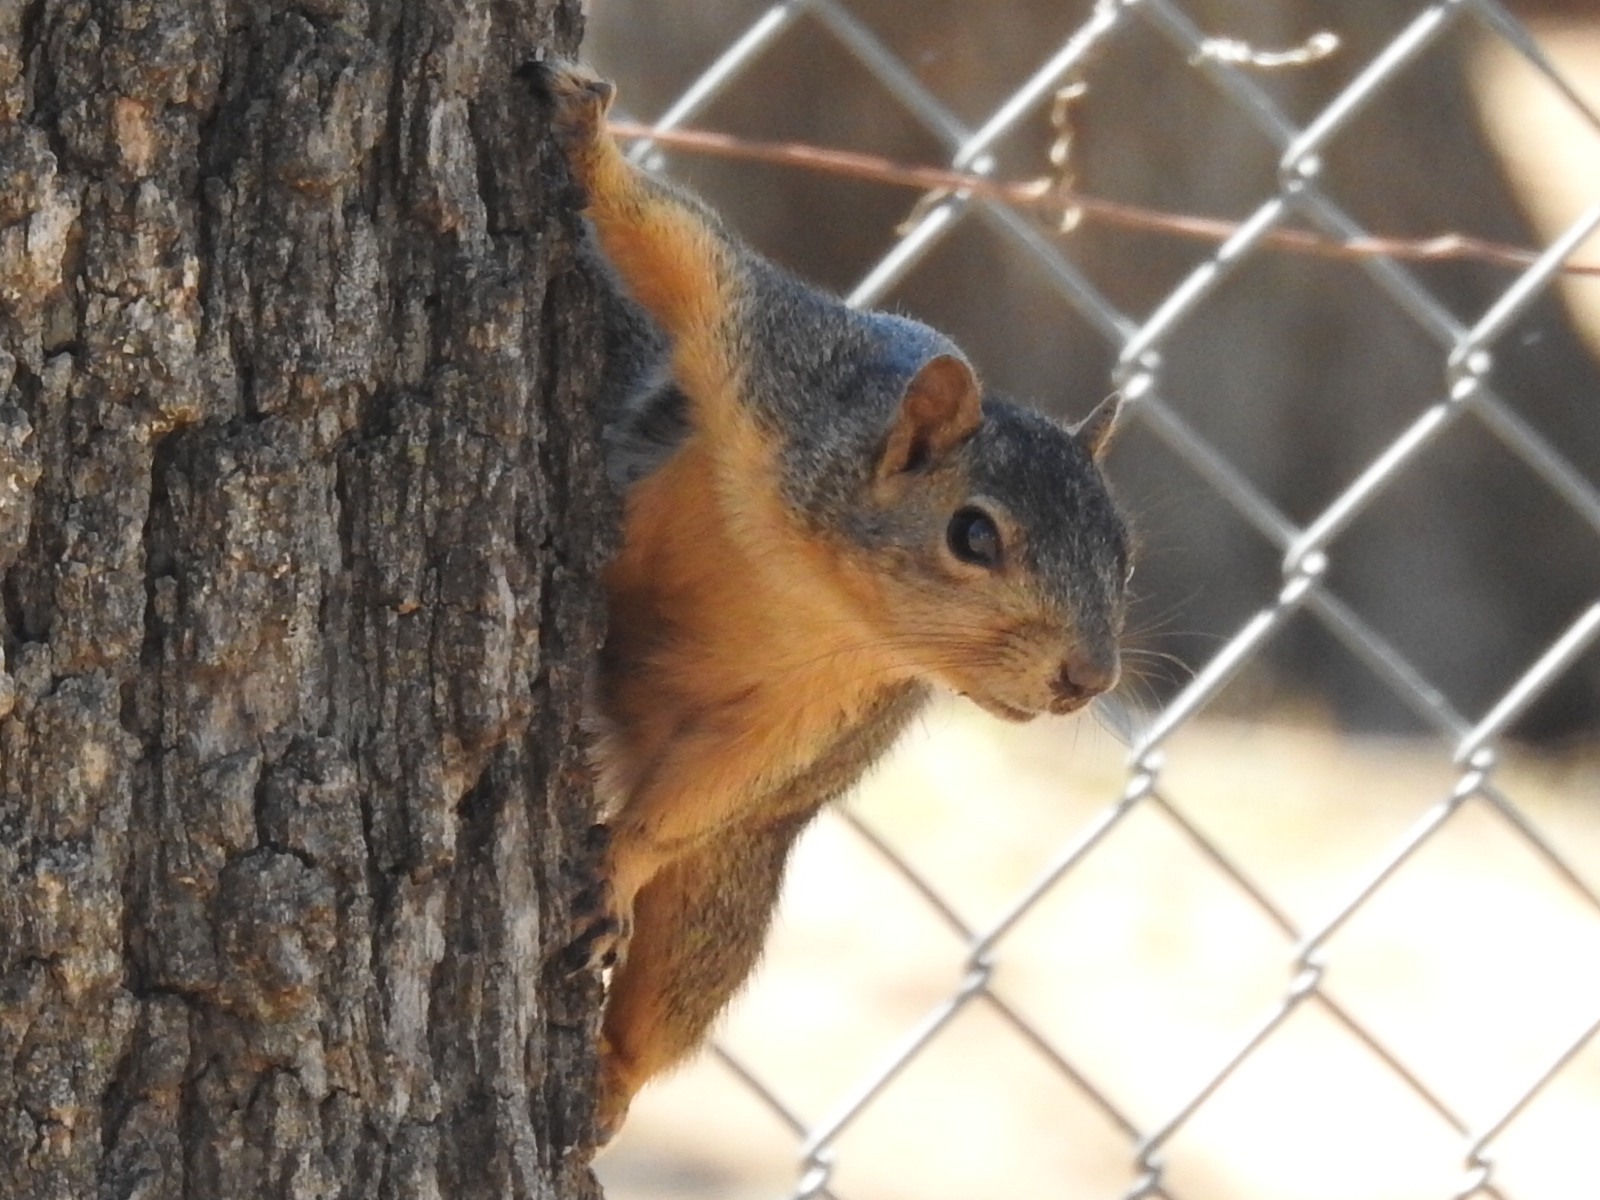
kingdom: Animalia
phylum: Chordata
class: Mammalia
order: Rodentia
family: Sciuridae
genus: Sciurus
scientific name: Sciurus niger
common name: Fox squirrel
